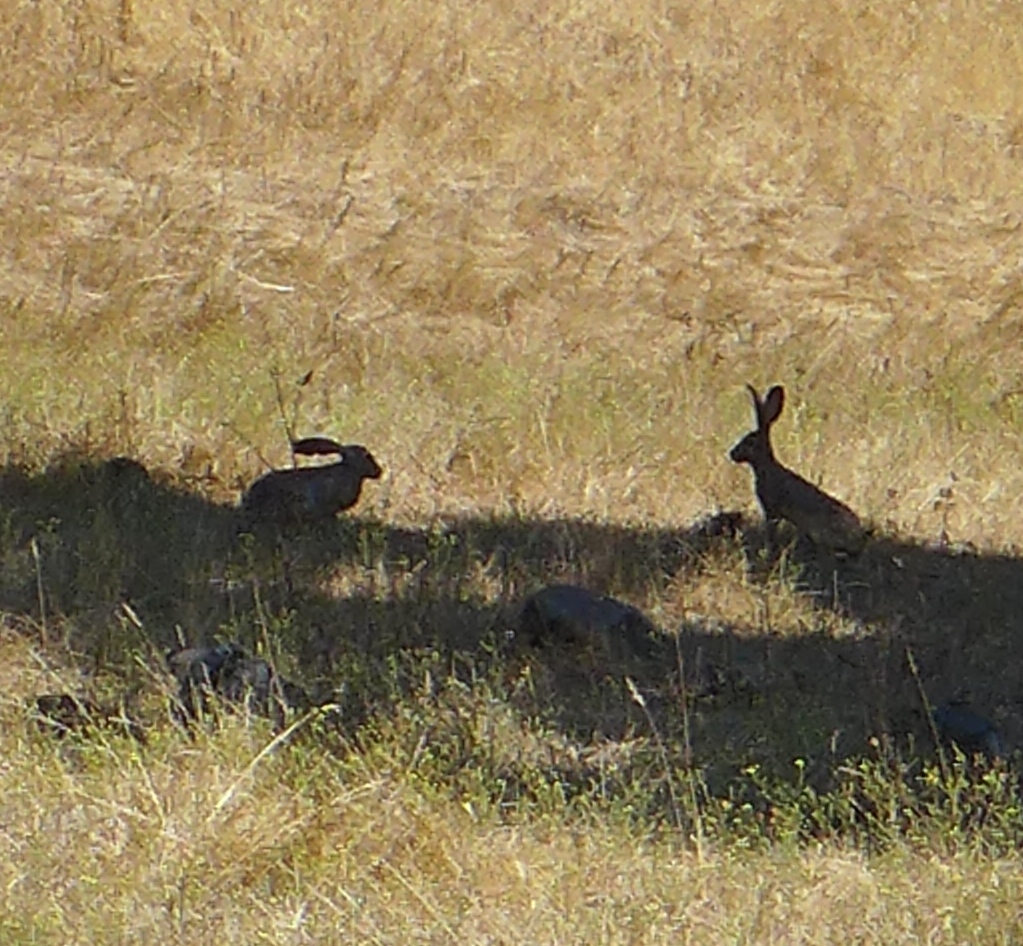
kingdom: Animalia
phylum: Chordata
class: Mammalia
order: Lagomorpha
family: Leporidae
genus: Lepus
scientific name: Lepus californicus
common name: Black-tailed jackrabbit
